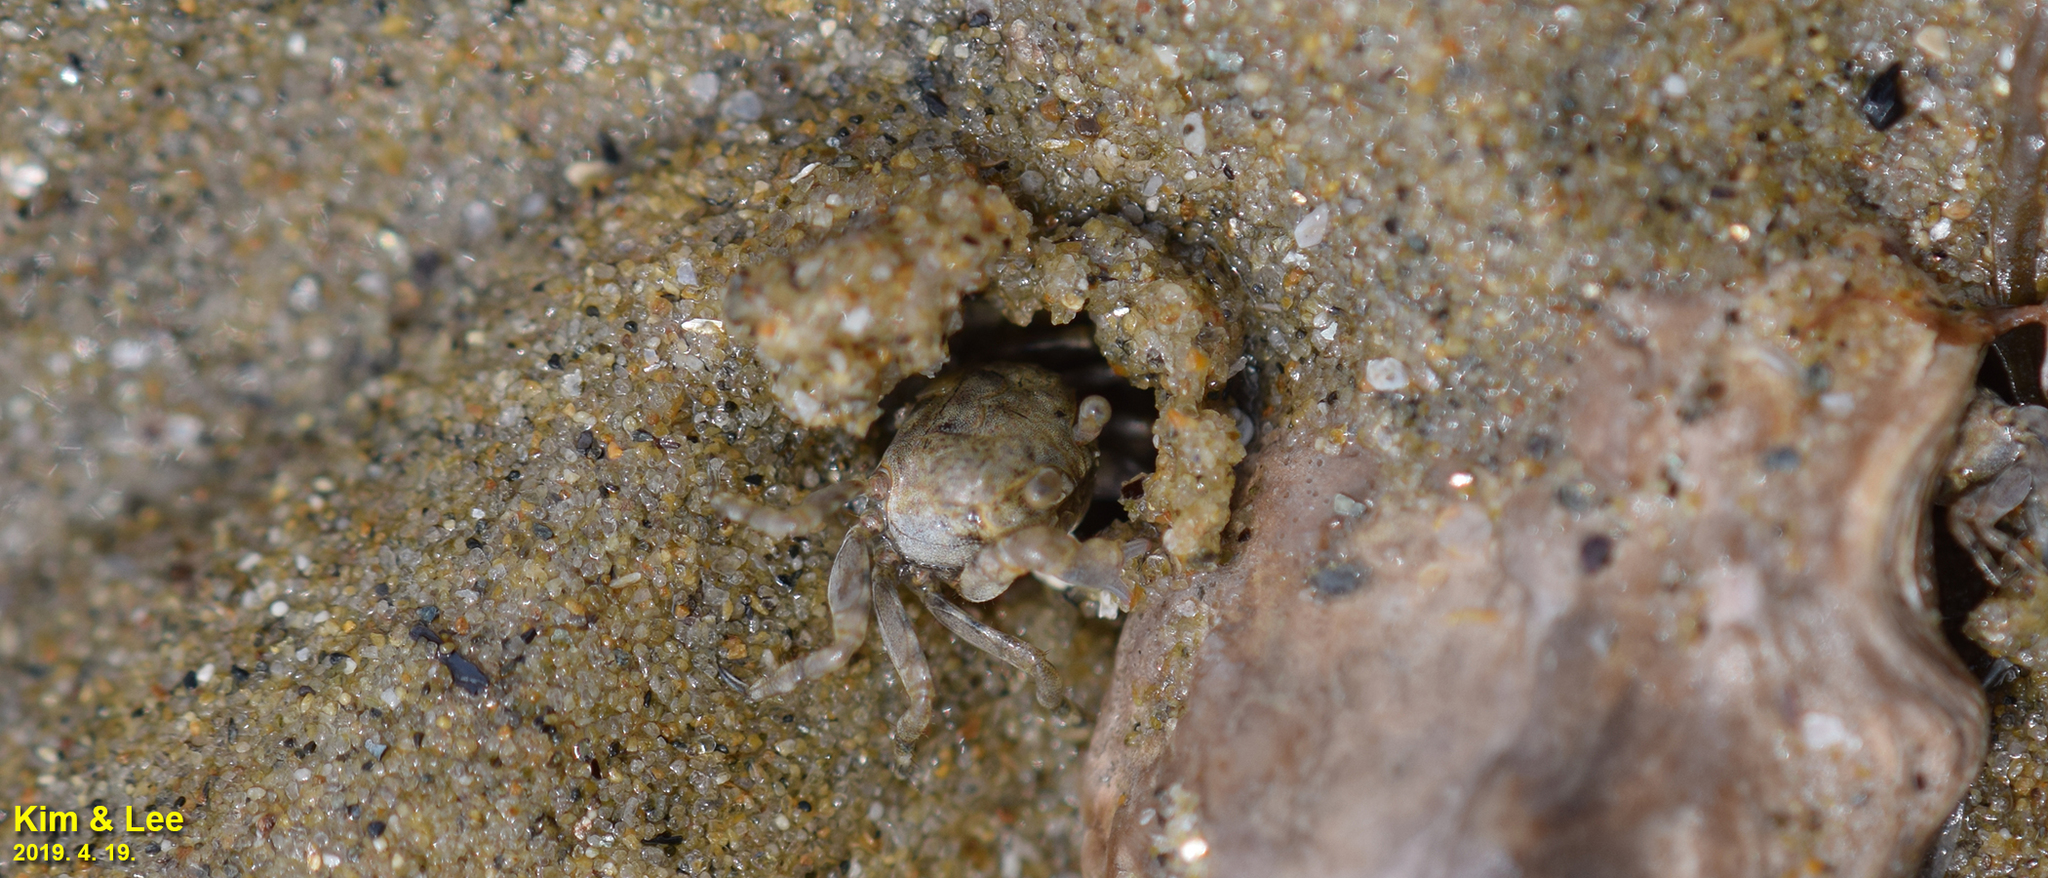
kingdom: Animalia
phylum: Arthropoda
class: Malacostraca
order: Decapoda
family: Dotillidae
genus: Scopimera
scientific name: Scopimera globosa
